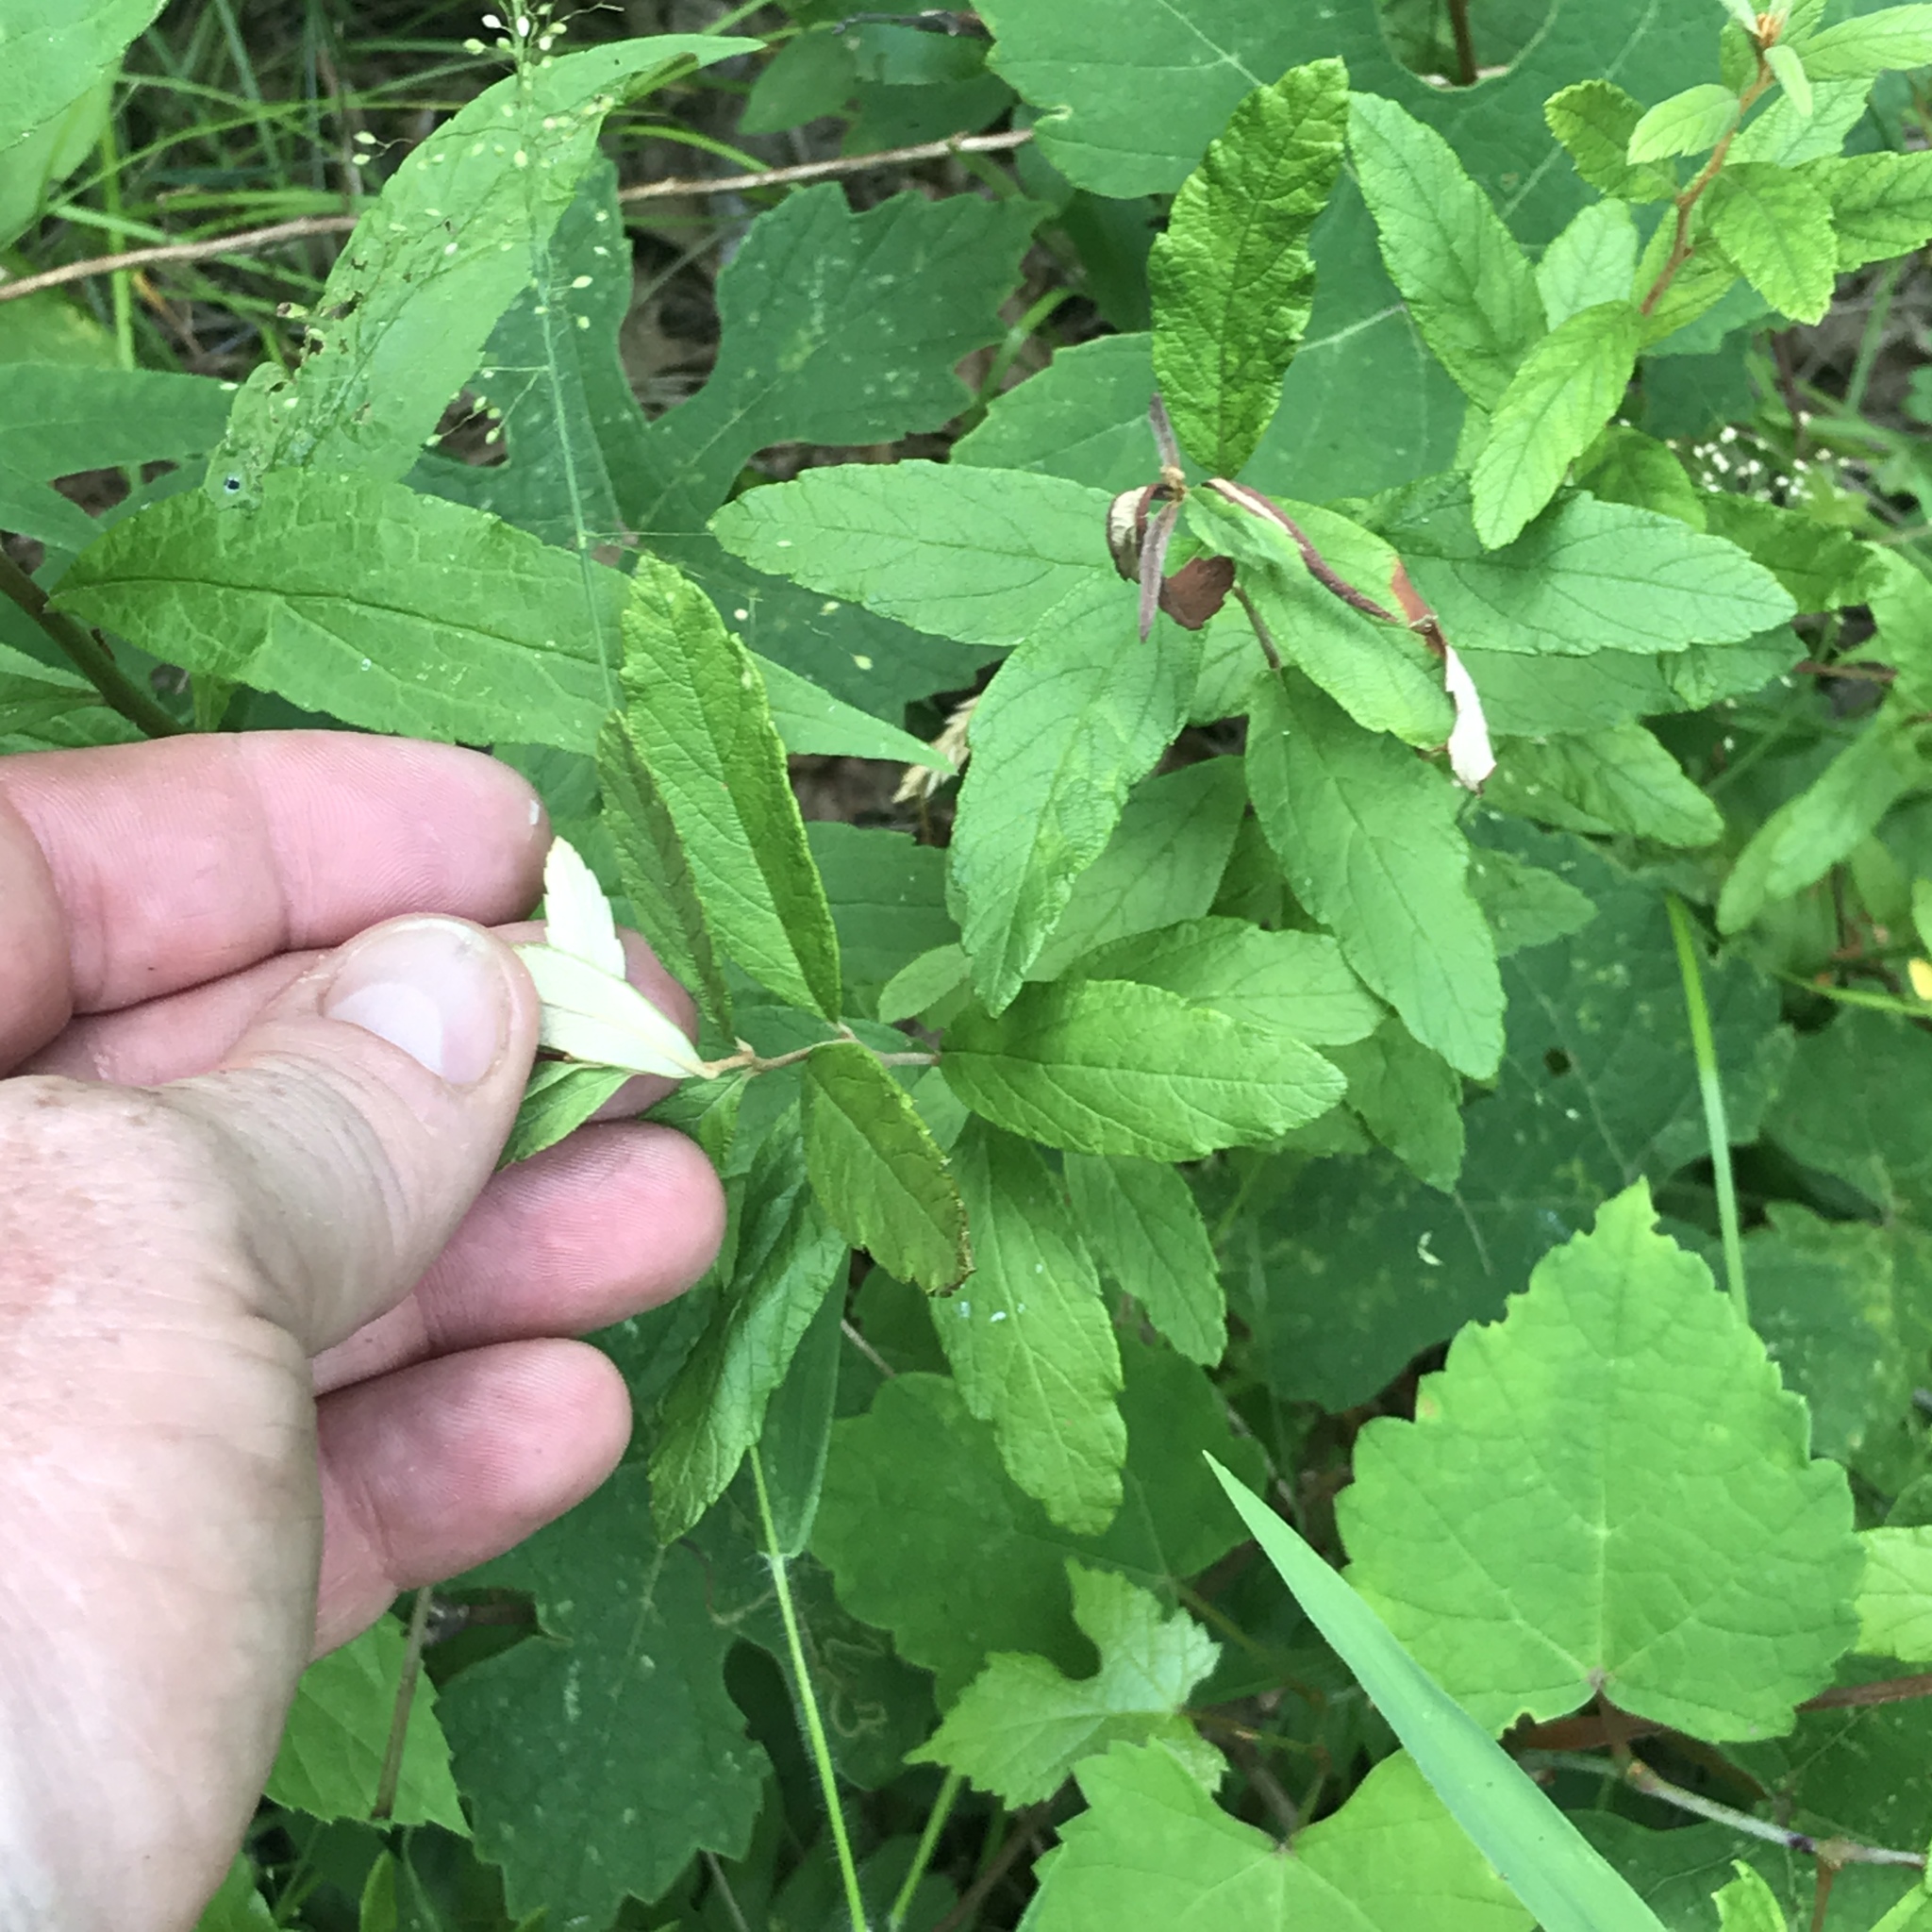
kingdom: Plantae
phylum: Tracheophyta
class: Magnoliopsida
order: Rosales
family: Rosaceae
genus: Spiraea
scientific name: Spiraea tomentosa
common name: Hardhack
